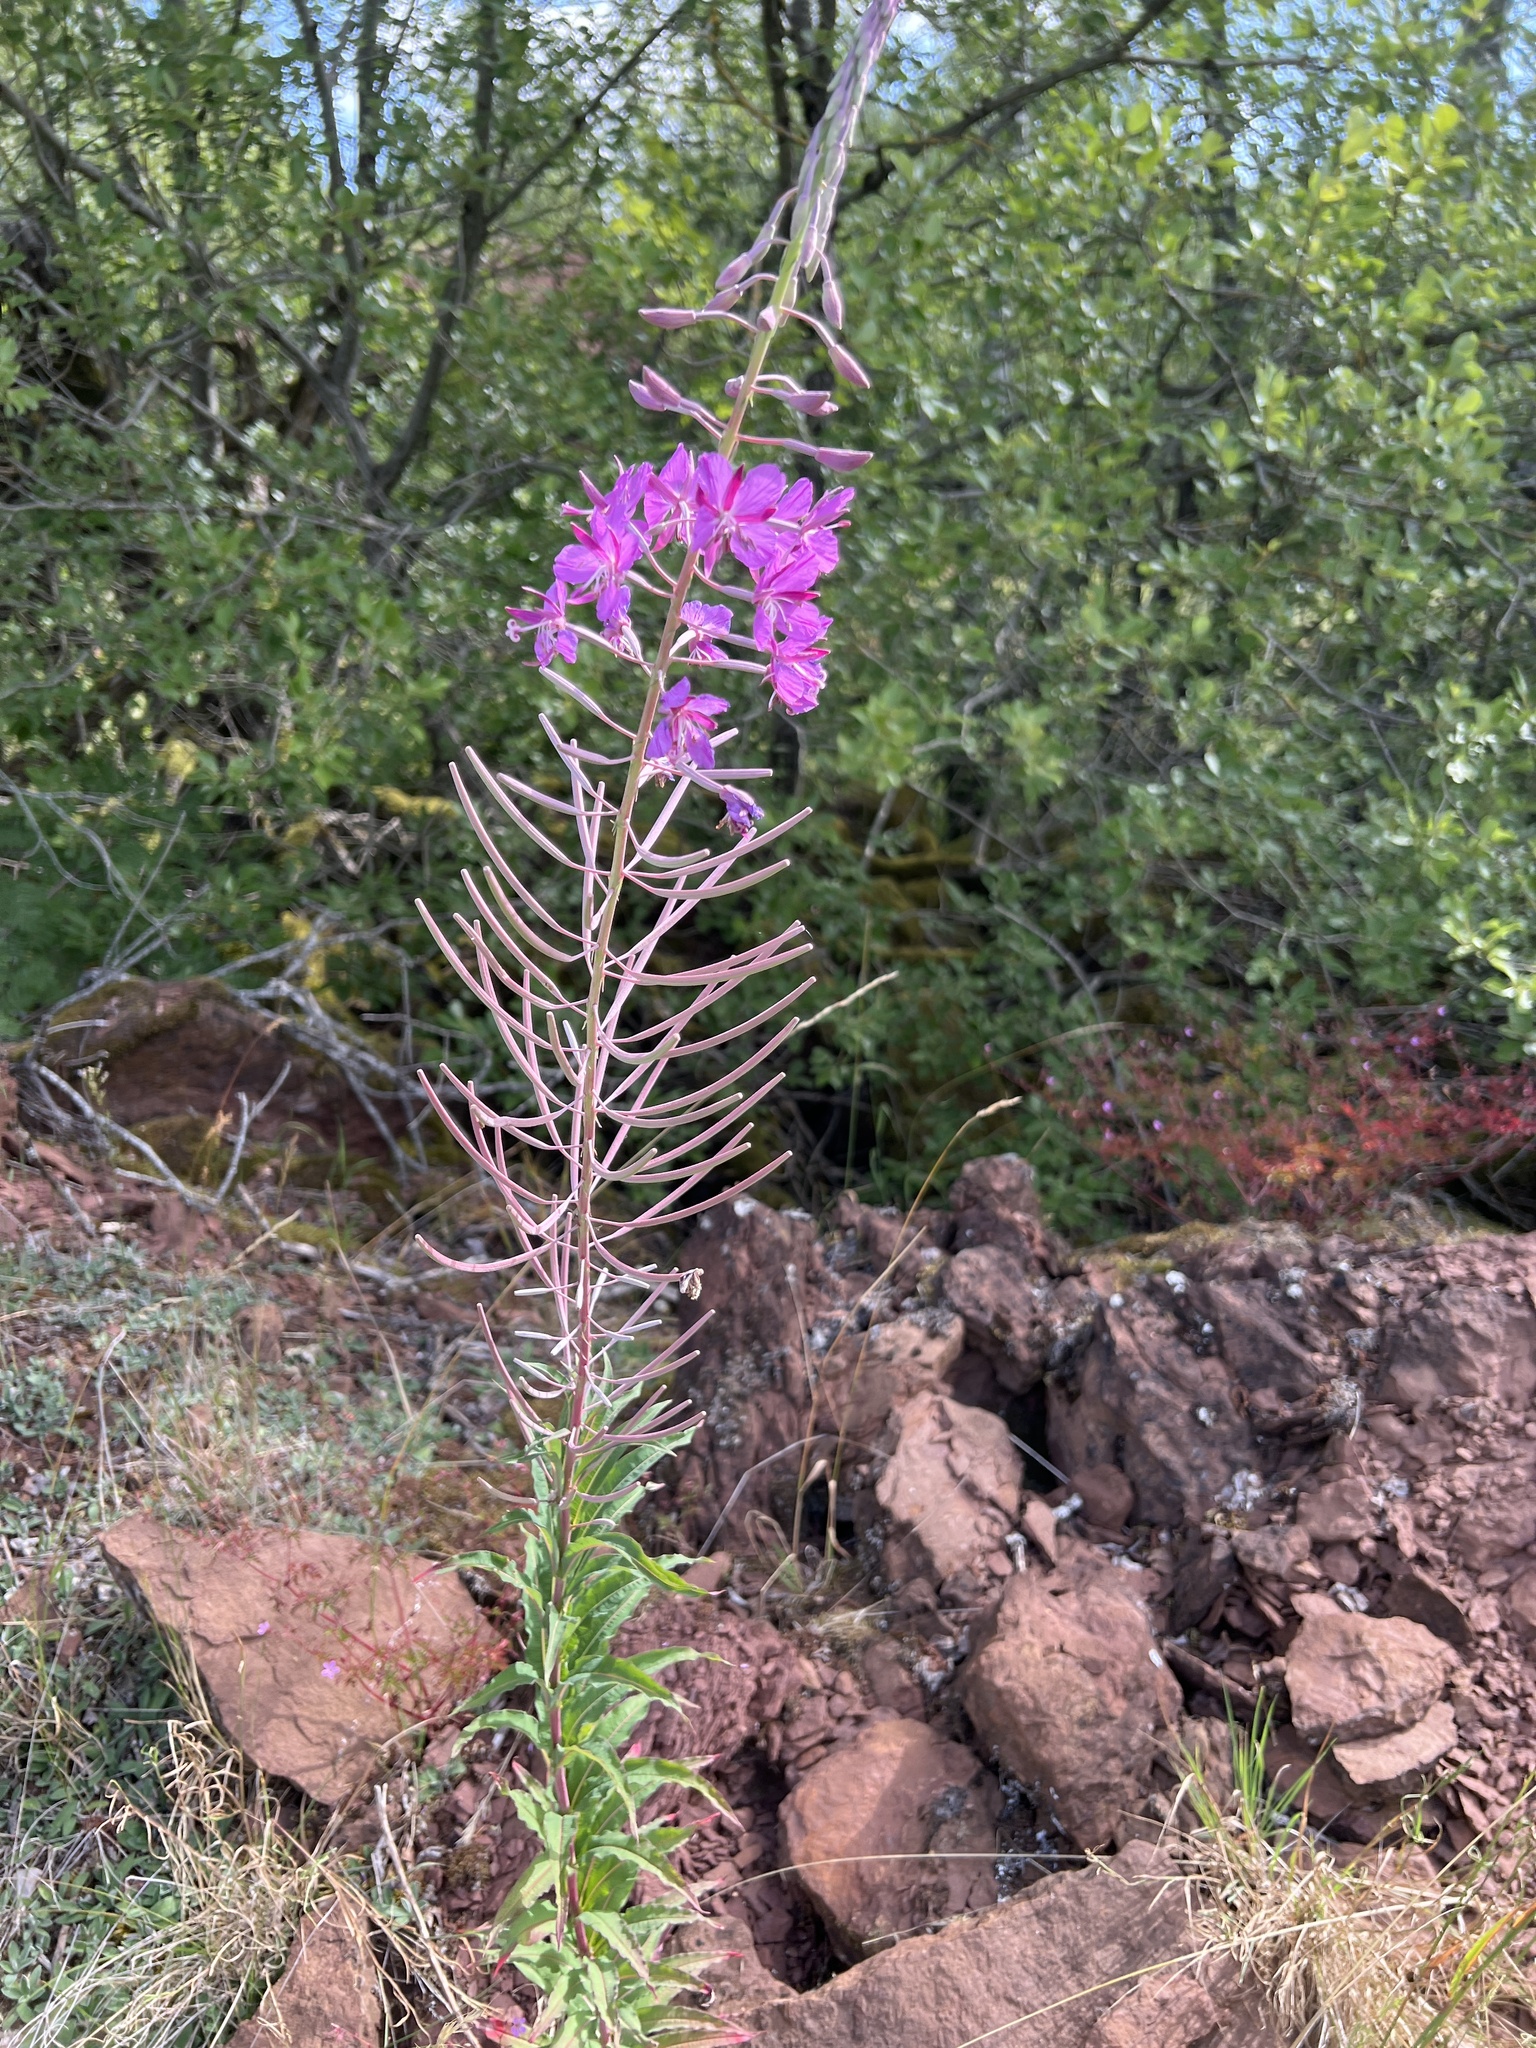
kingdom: Plantae
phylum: Tracheophyta
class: Magnoliopsida
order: Myrtales
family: Onagraceae
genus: Chamaenerion
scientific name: Chamaenerion angustifolium
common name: Fireweed
